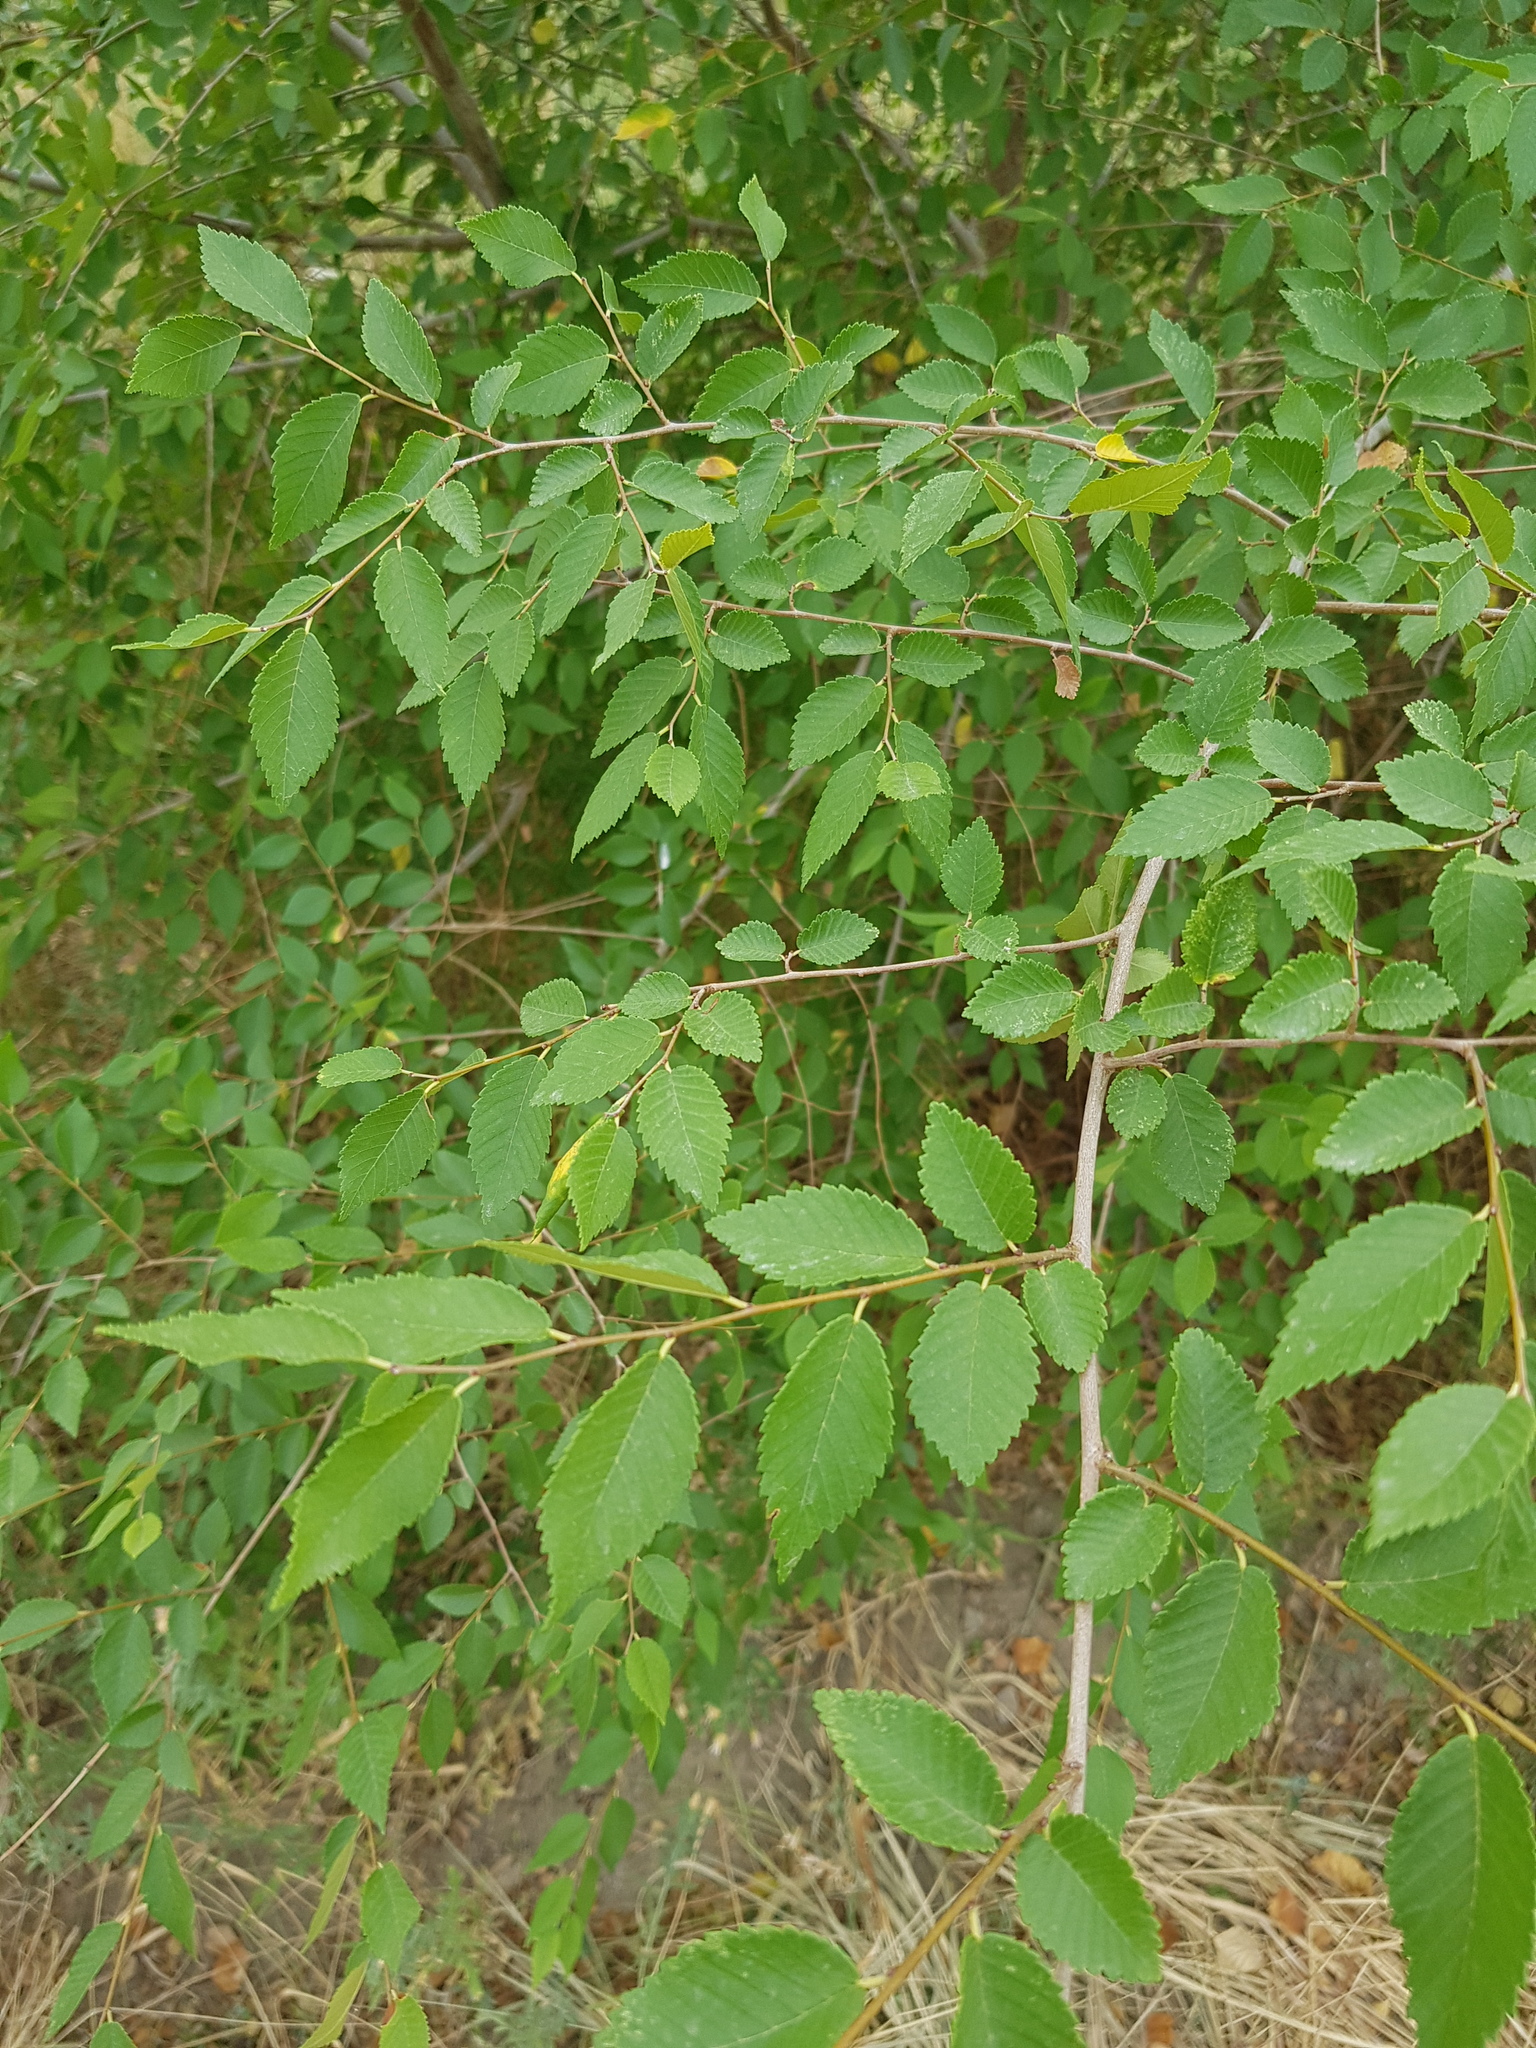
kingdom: Plantae
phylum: Tracheophyta
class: Magnoliopsida
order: Rosales
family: Ulmaceae
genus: Ulmus
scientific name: Ulmus pumila
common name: Siberian elm
